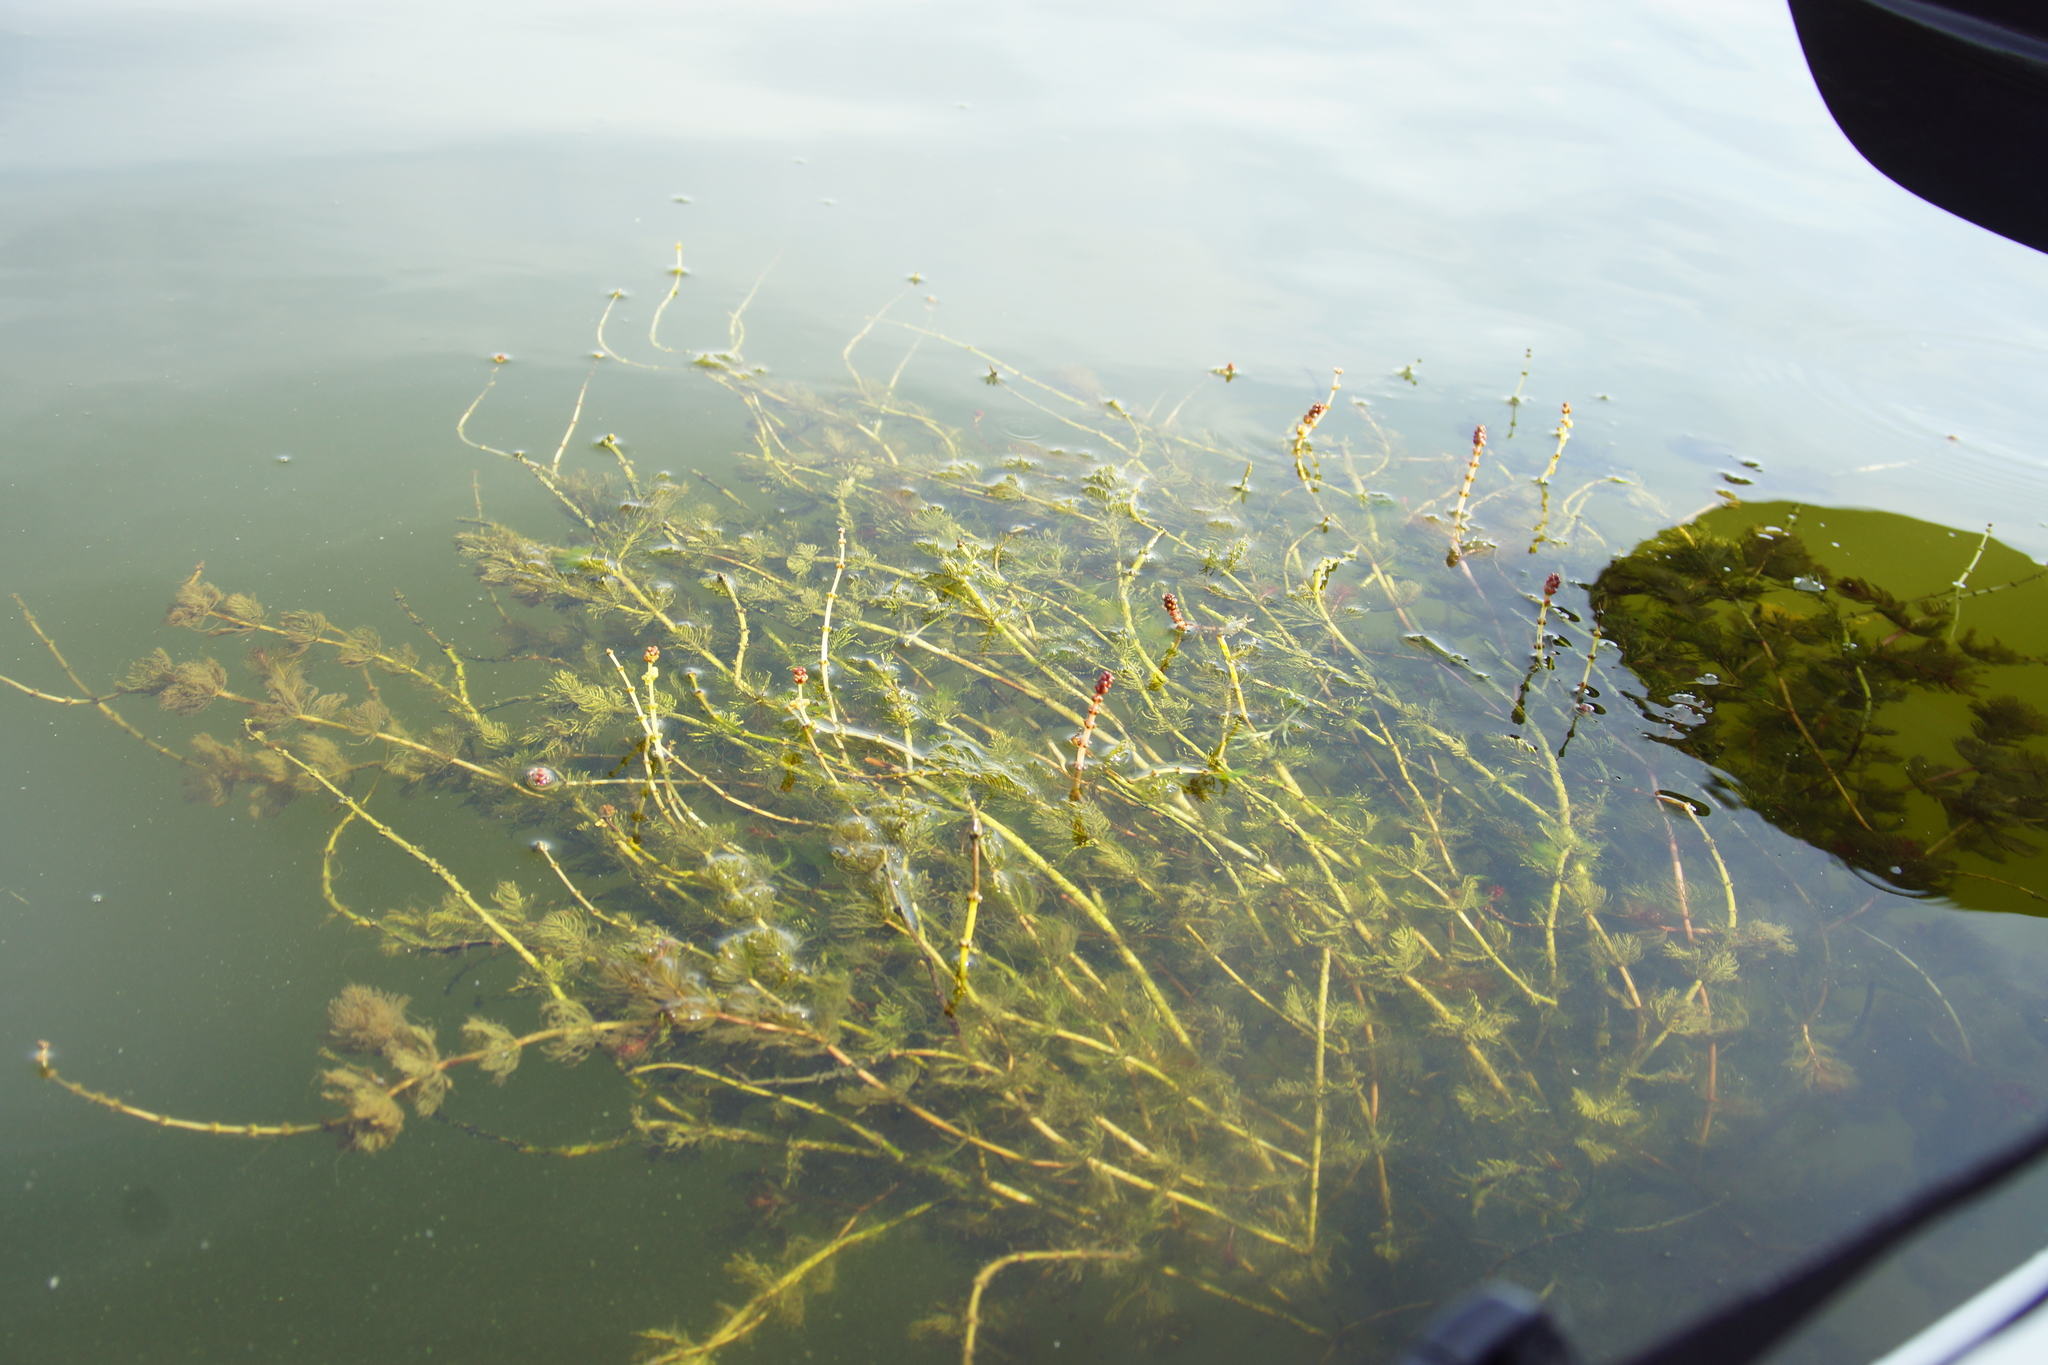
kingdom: Plantae
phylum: Tracheophyta
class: Magnoliopsida
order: Saxifragales
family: Haloragaceae
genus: Myriophyllum
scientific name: Myriophyllum spicatum
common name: Spiked water-milfoil
